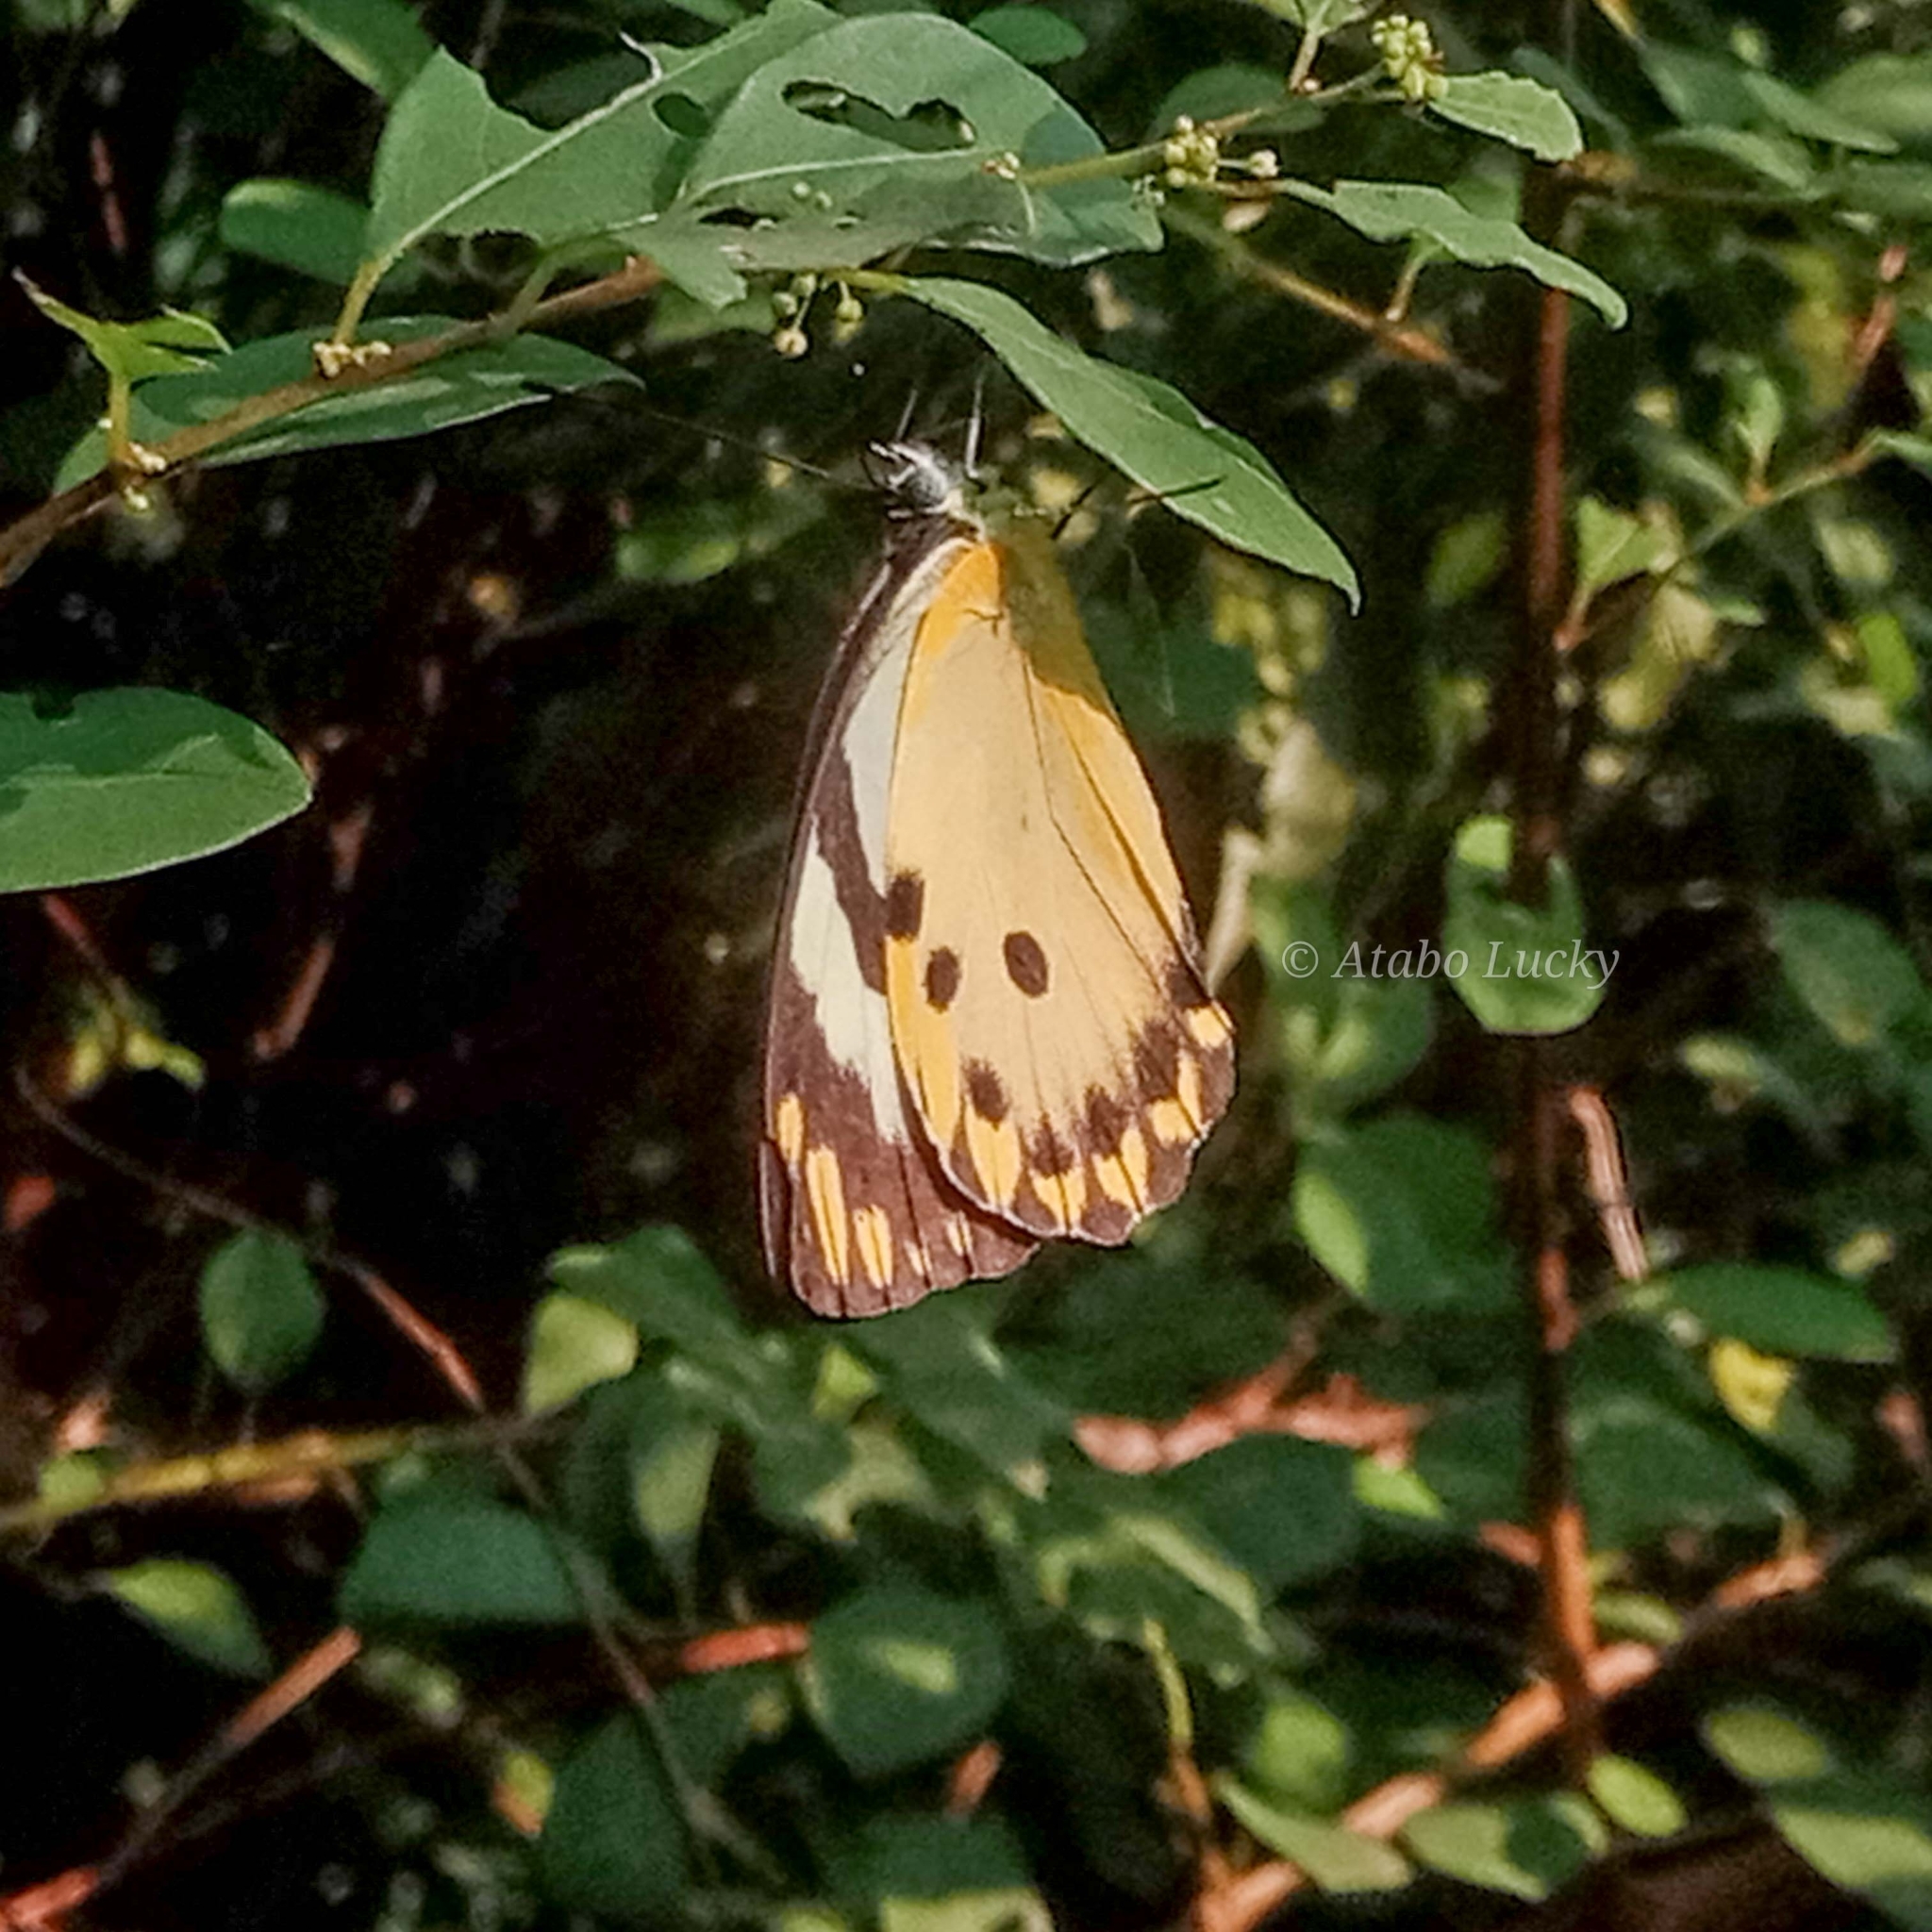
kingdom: Animalia
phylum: Arthropoda
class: Insecta
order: Lepidoptera
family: Pieridae
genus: Belenois
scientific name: Belenois calypso
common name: Calypso caper white
